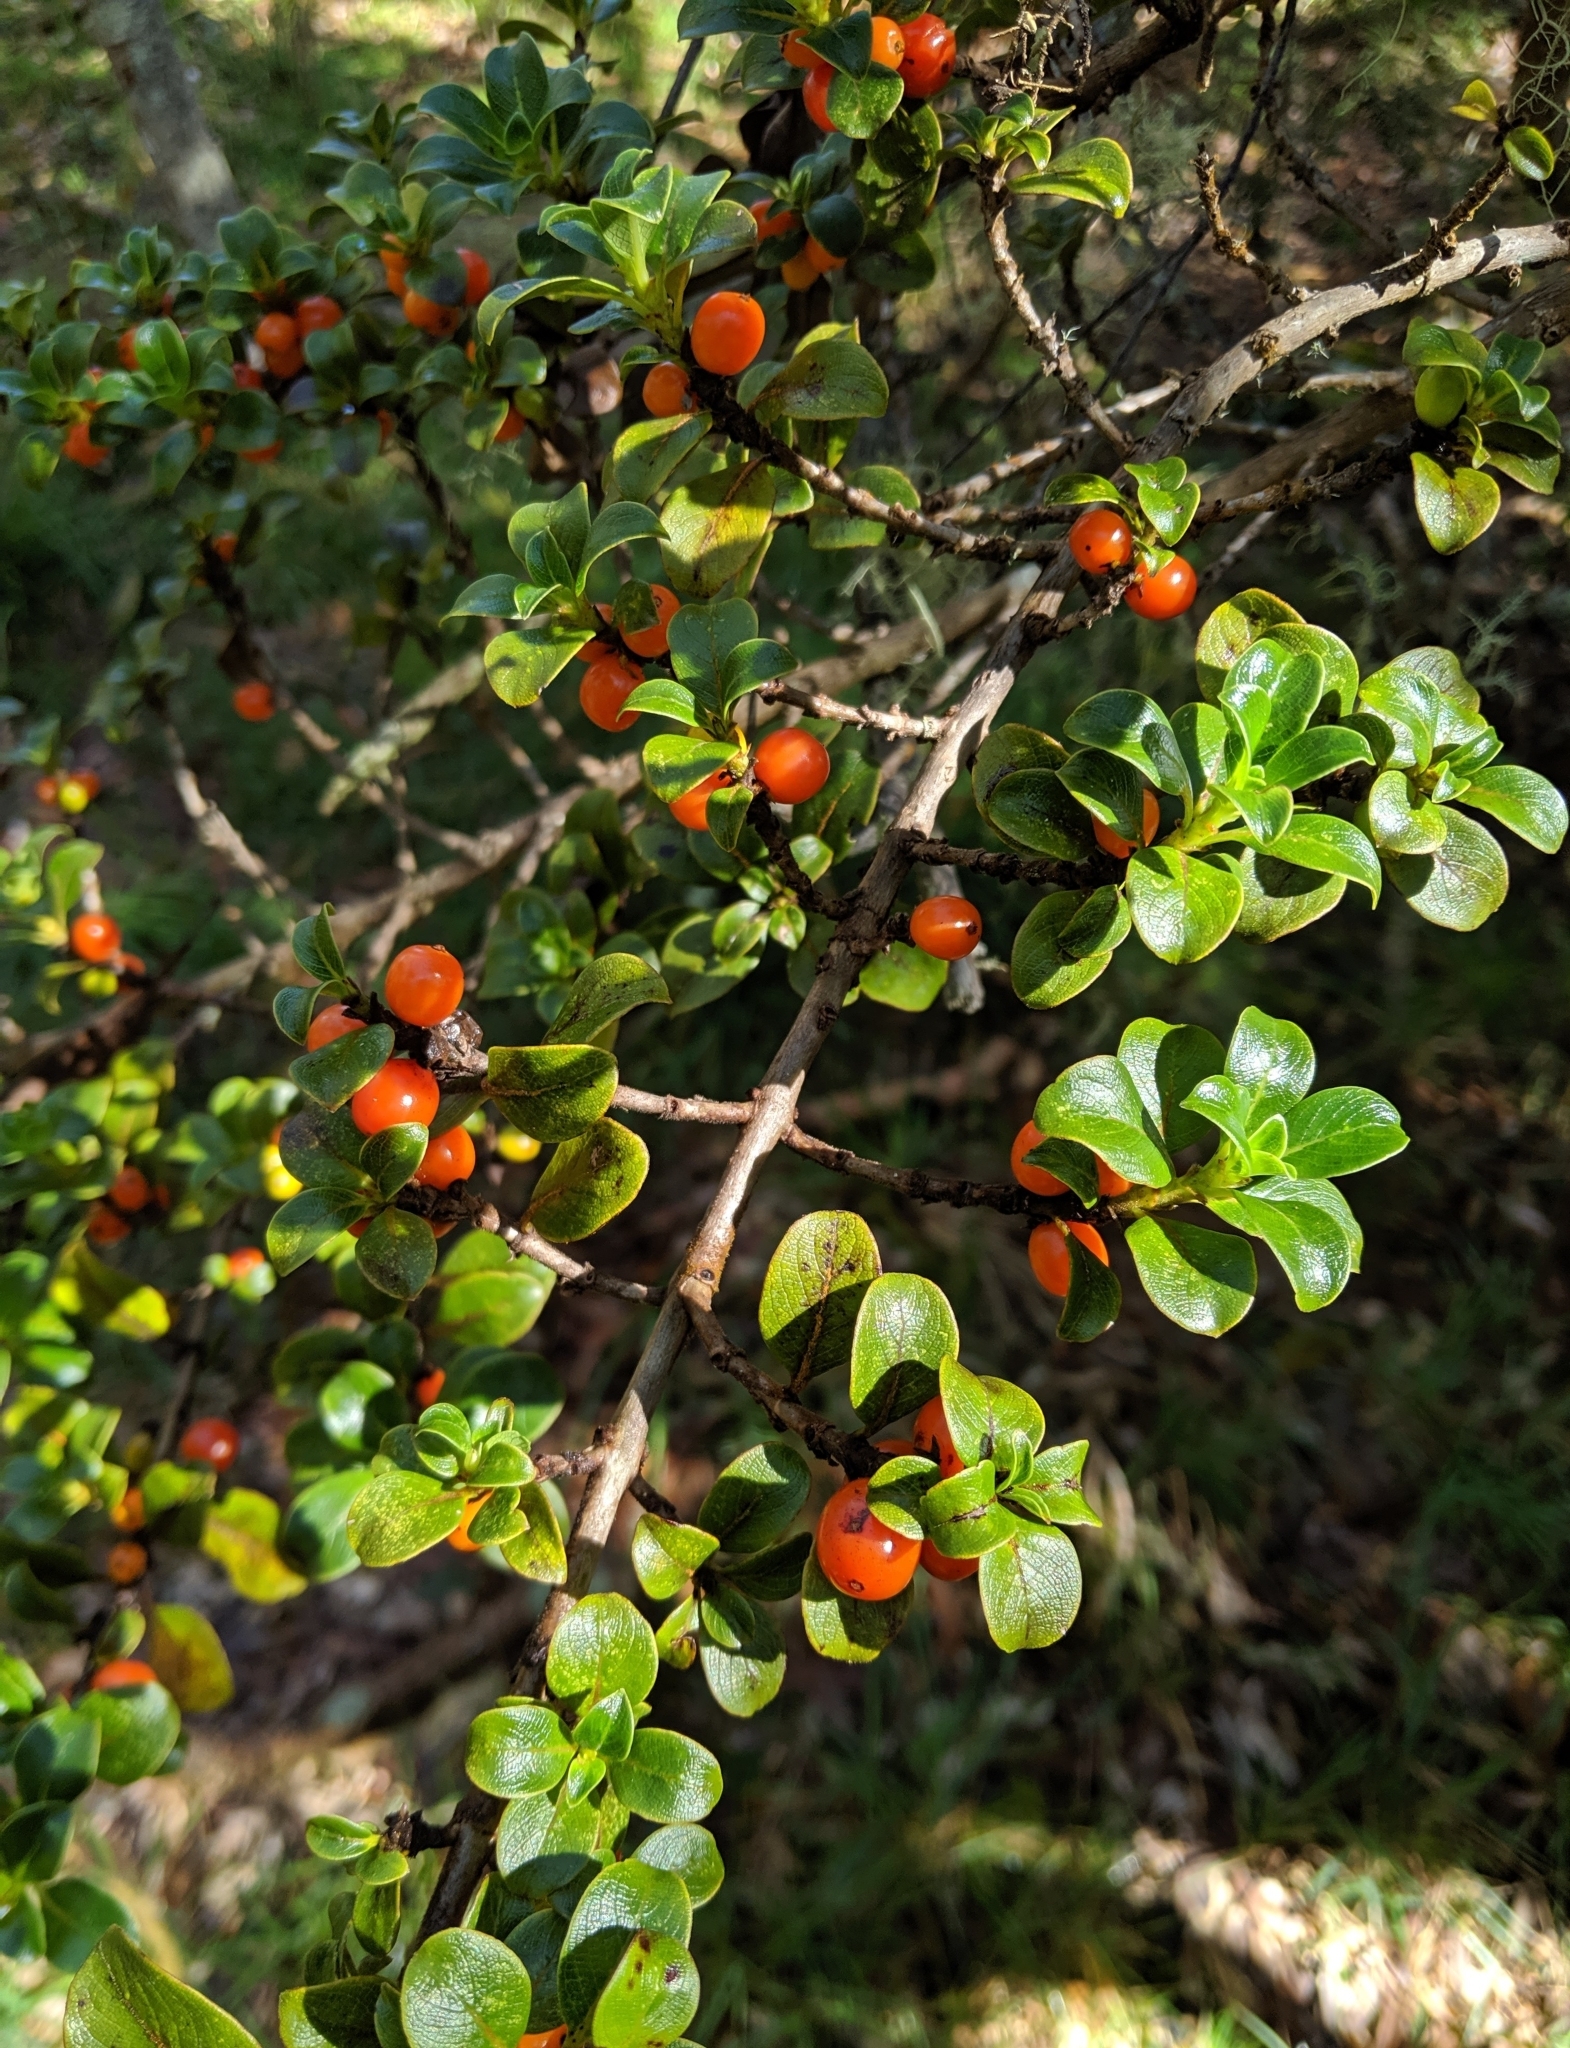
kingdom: Plantae
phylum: Tracheophyta
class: Magnoliopsida
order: Gentianales
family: Rubiaceae
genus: Coprosma
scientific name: Coprosma montana
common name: Alpine mirror plant
